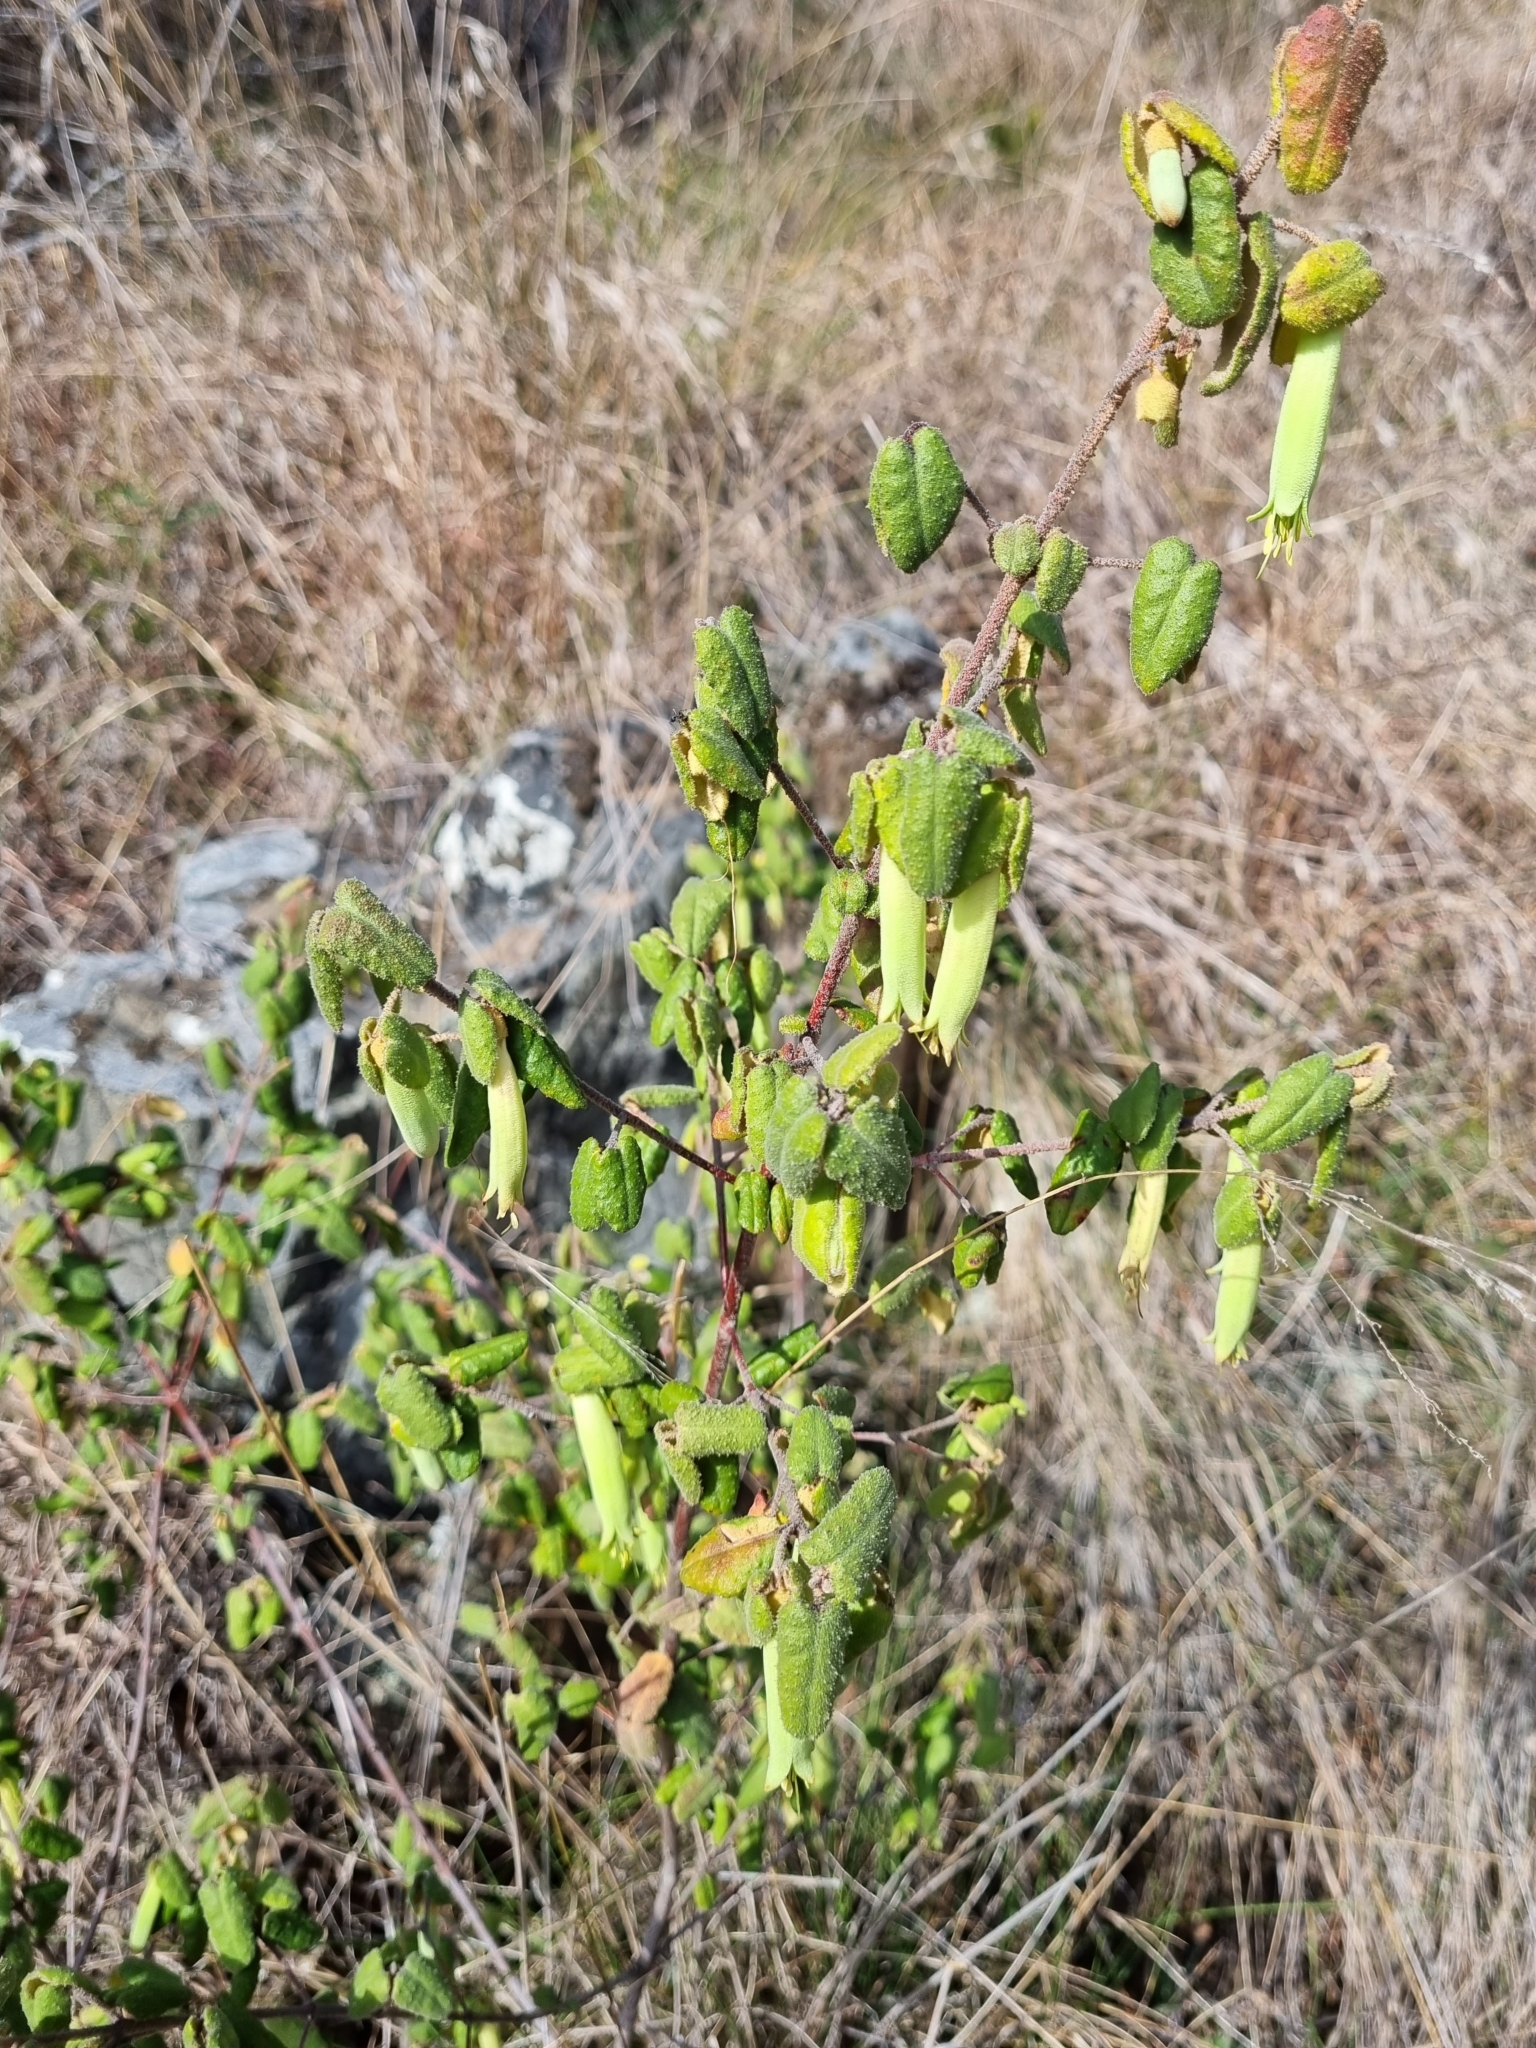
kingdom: Plantae
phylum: Tracheophyta
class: Magnoliopsida
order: Sapindales
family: Rutaceae
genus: Correa
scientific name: Correa reflexa
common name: Common correa
